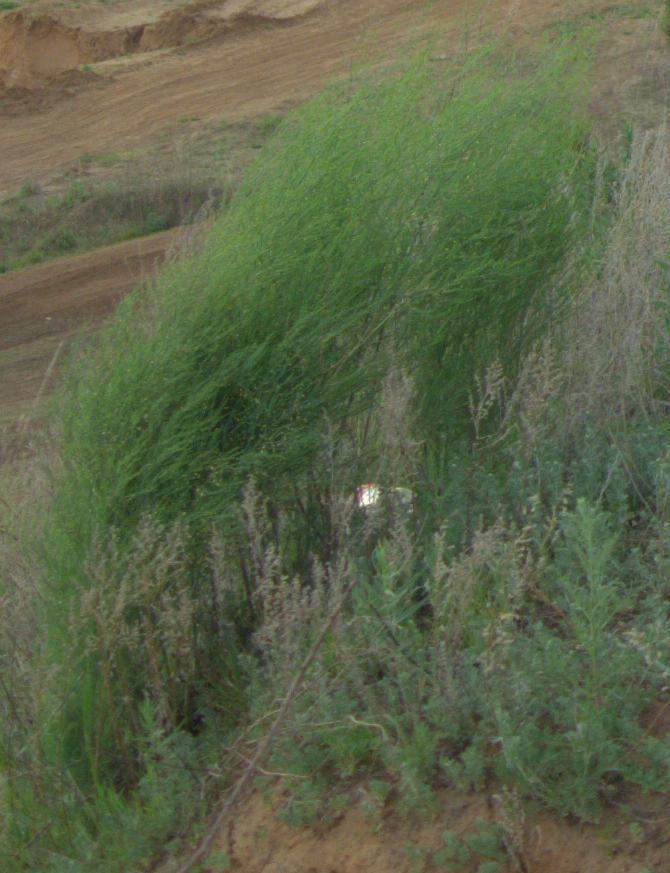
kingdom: Plantae
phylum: Tracheophyta
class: Liliopsida
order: Asparagales
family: Asparagaceae
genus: Asparagus
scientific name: Asparagus officinalis
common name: Garden asparagus
